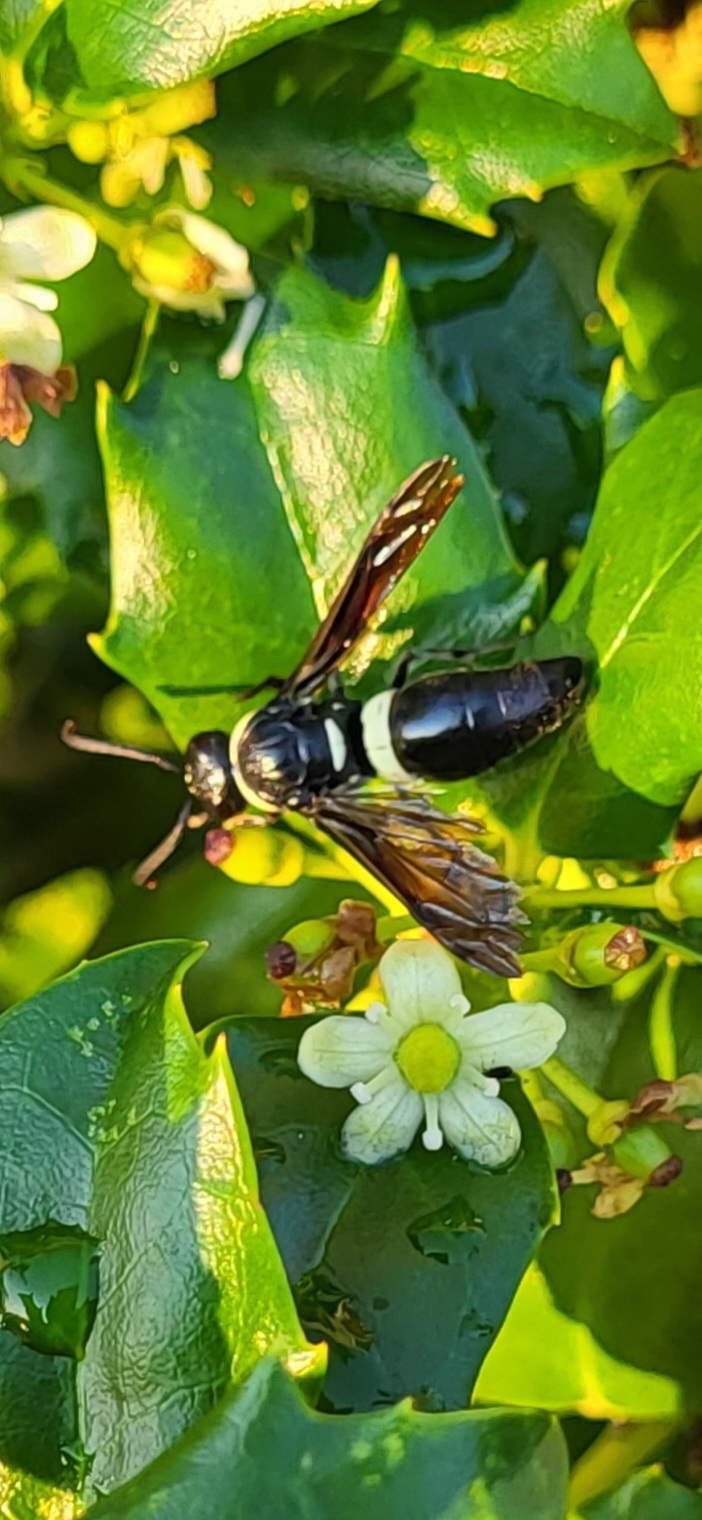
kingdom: Animalia
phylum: Arthropoda
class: Insecta
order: Hymenoptera
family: Eumenidae
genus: Monobia
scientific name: Monobia quadridens
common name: Four-toothed mason wasp
